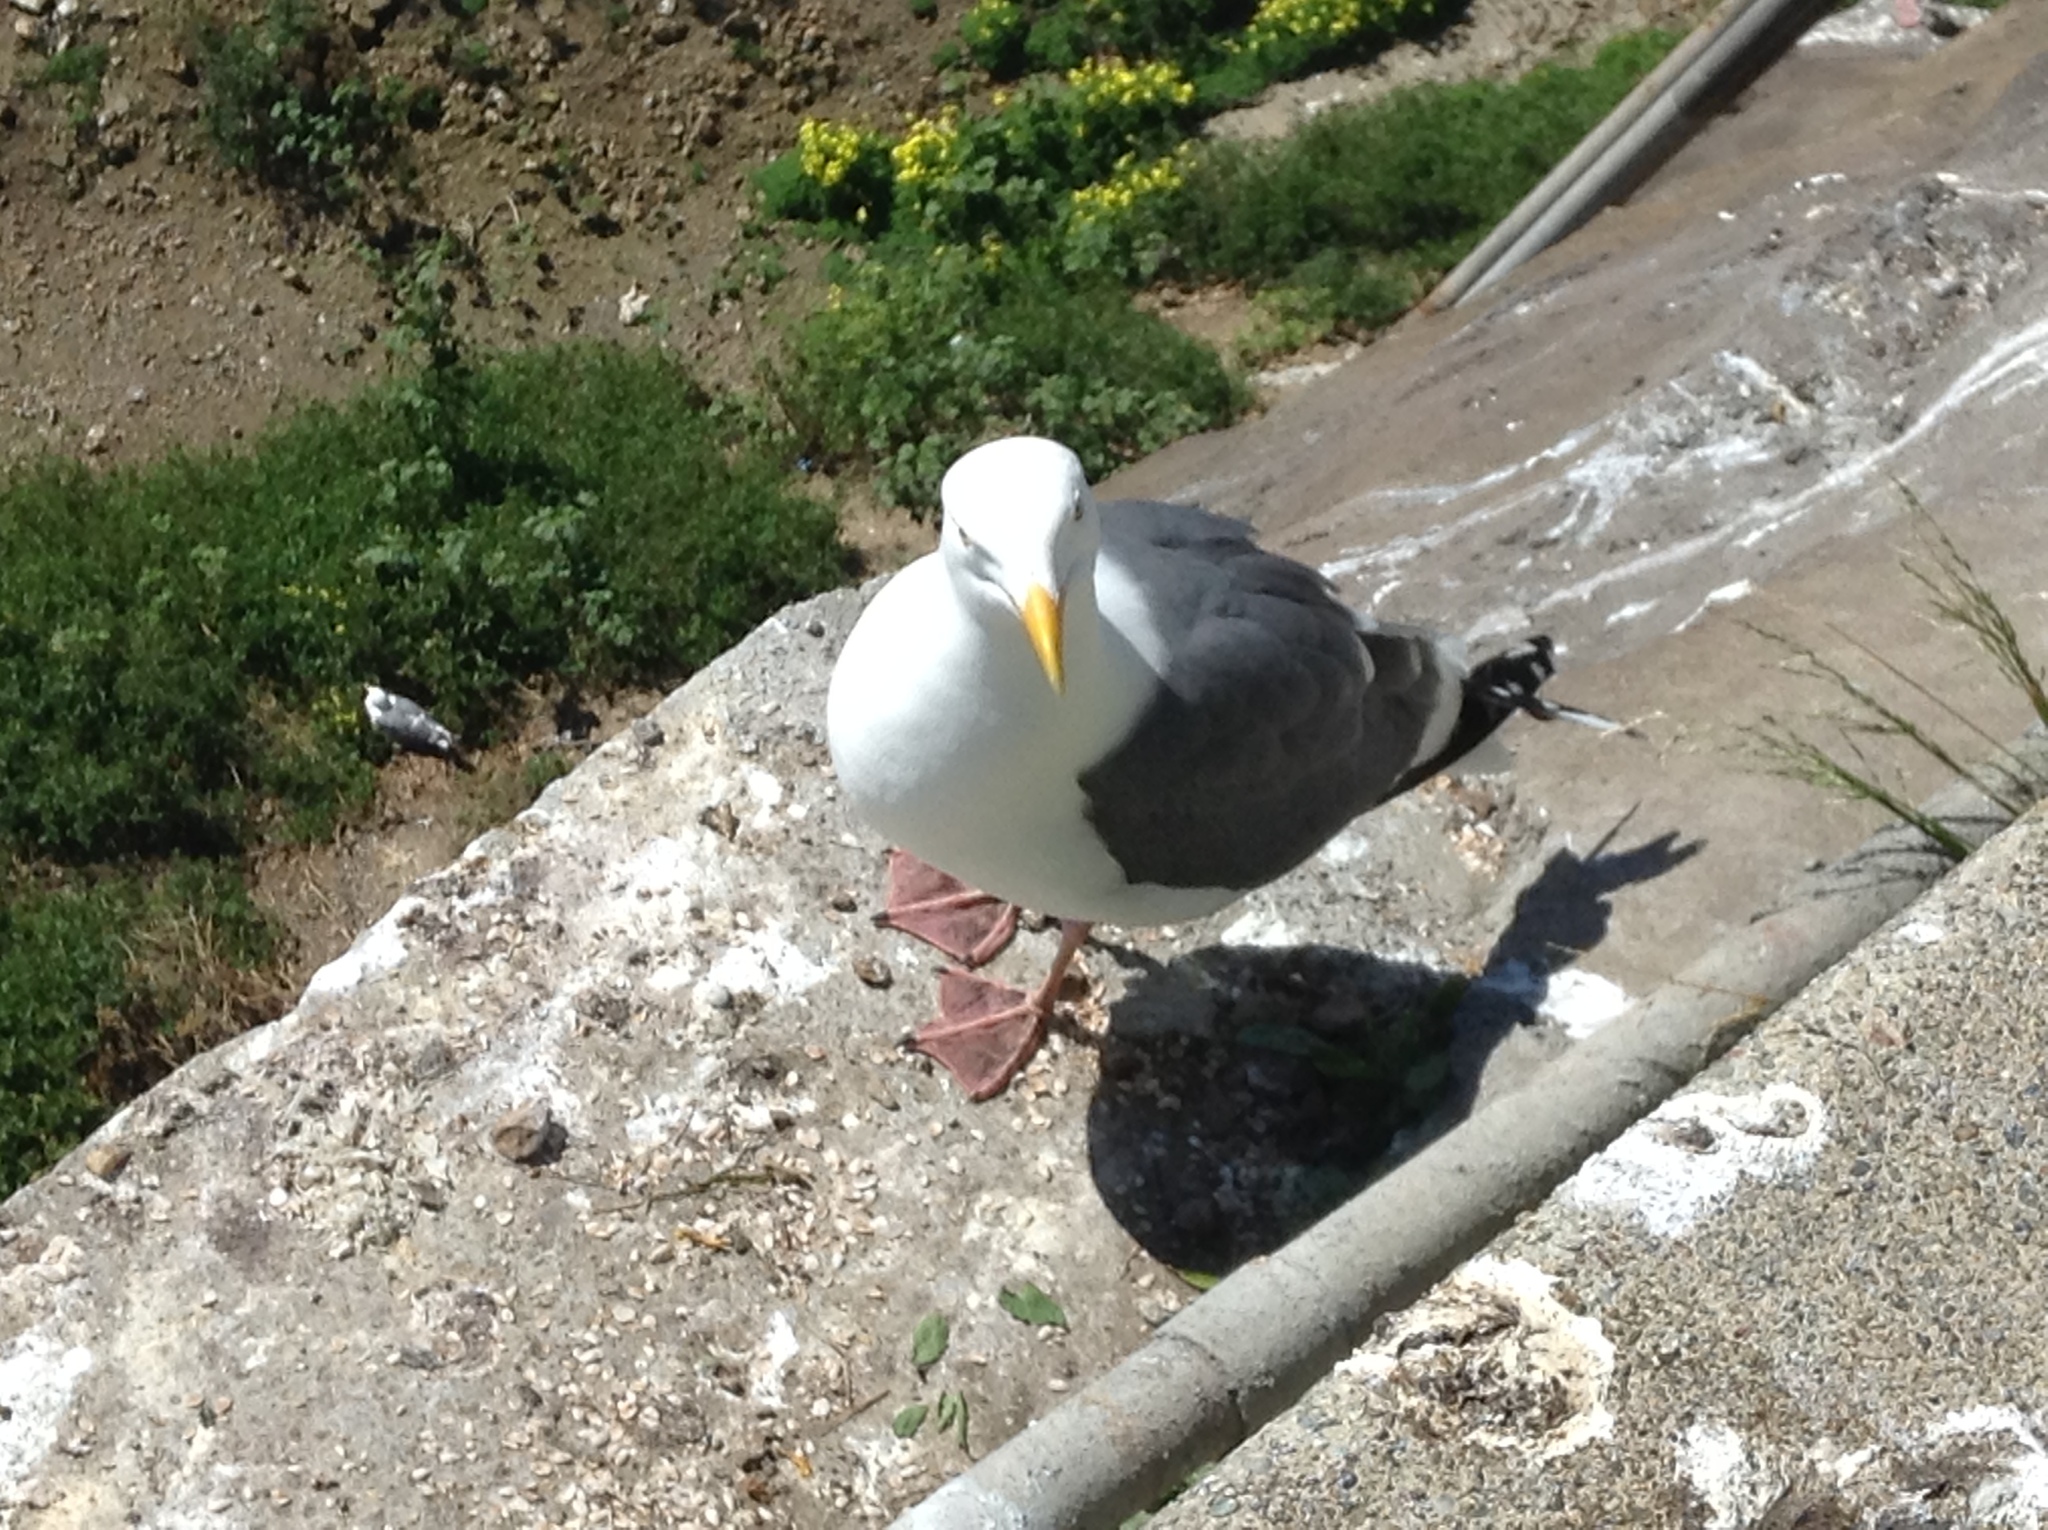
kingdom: Animalia
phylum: Chordata
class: Aves
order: Charadriiformes
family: Laridae
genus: Larus
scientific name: Larus argentatus
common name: Herring gull
